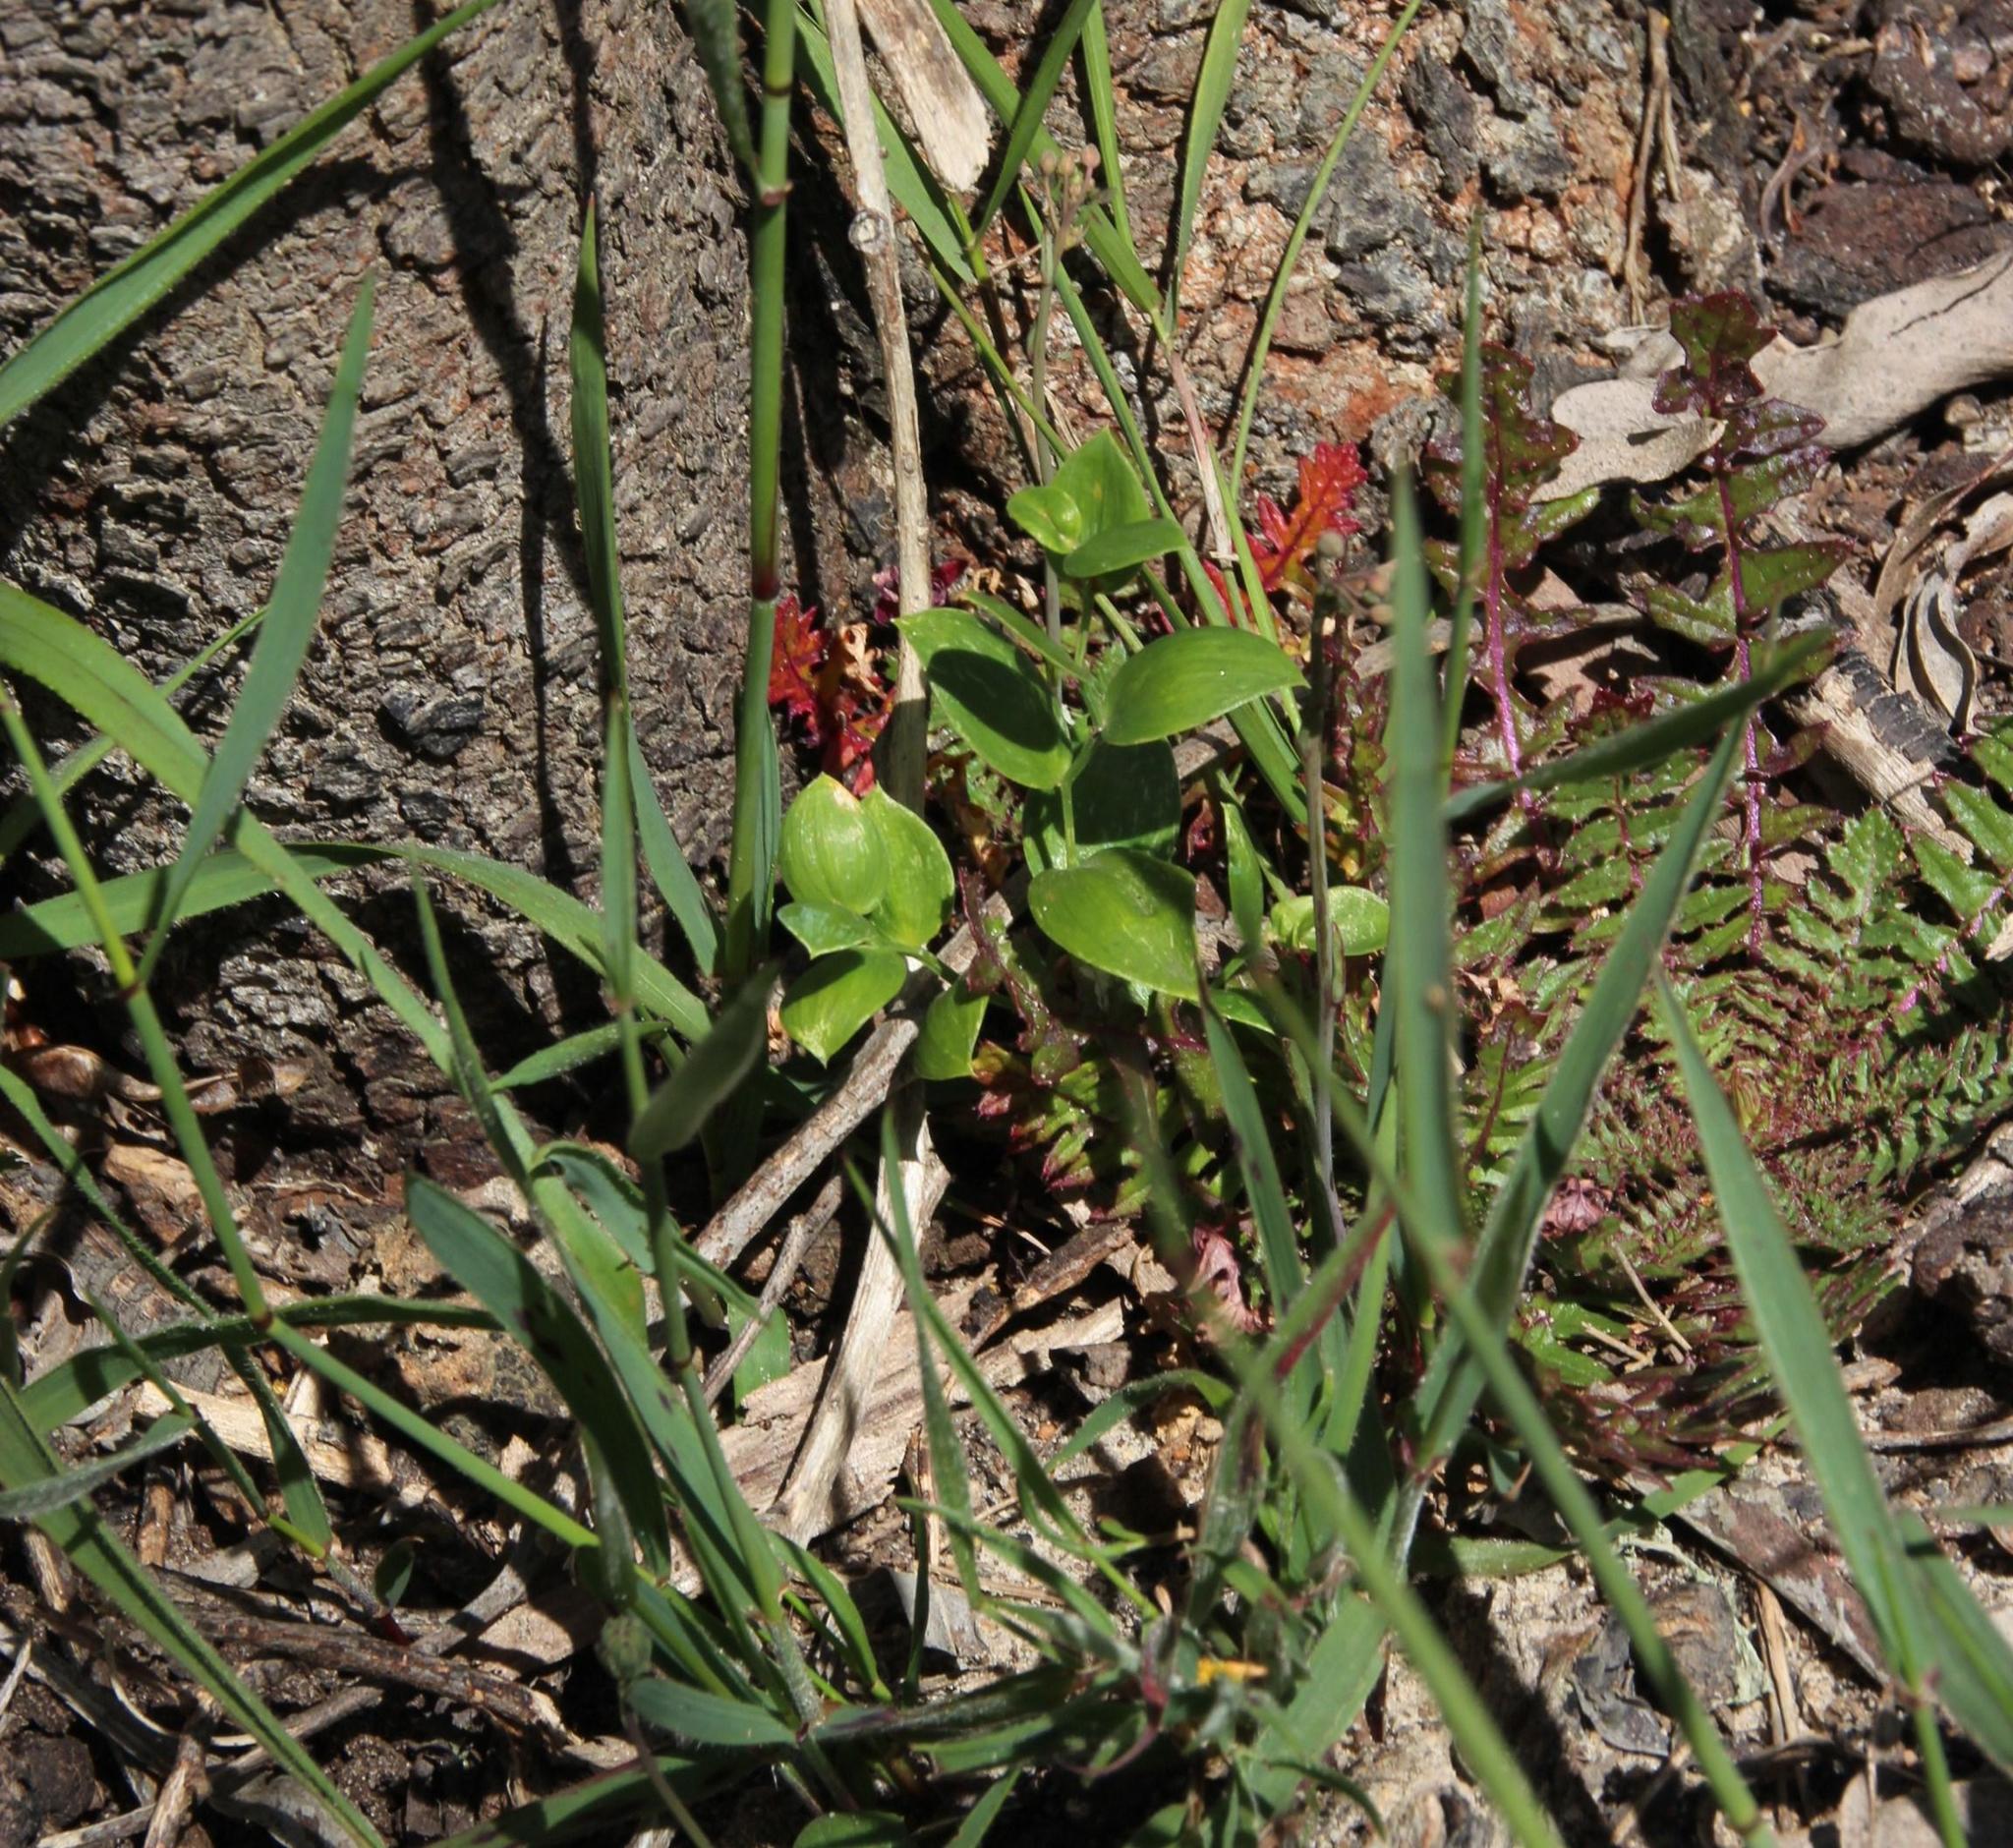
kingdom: Plantae
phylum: Tracheophyta
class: Liliopsida
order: Asparagales
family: Asparagaceae
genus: Asparagus
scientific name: Asparagus asparagoides
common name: African asparagus fern
